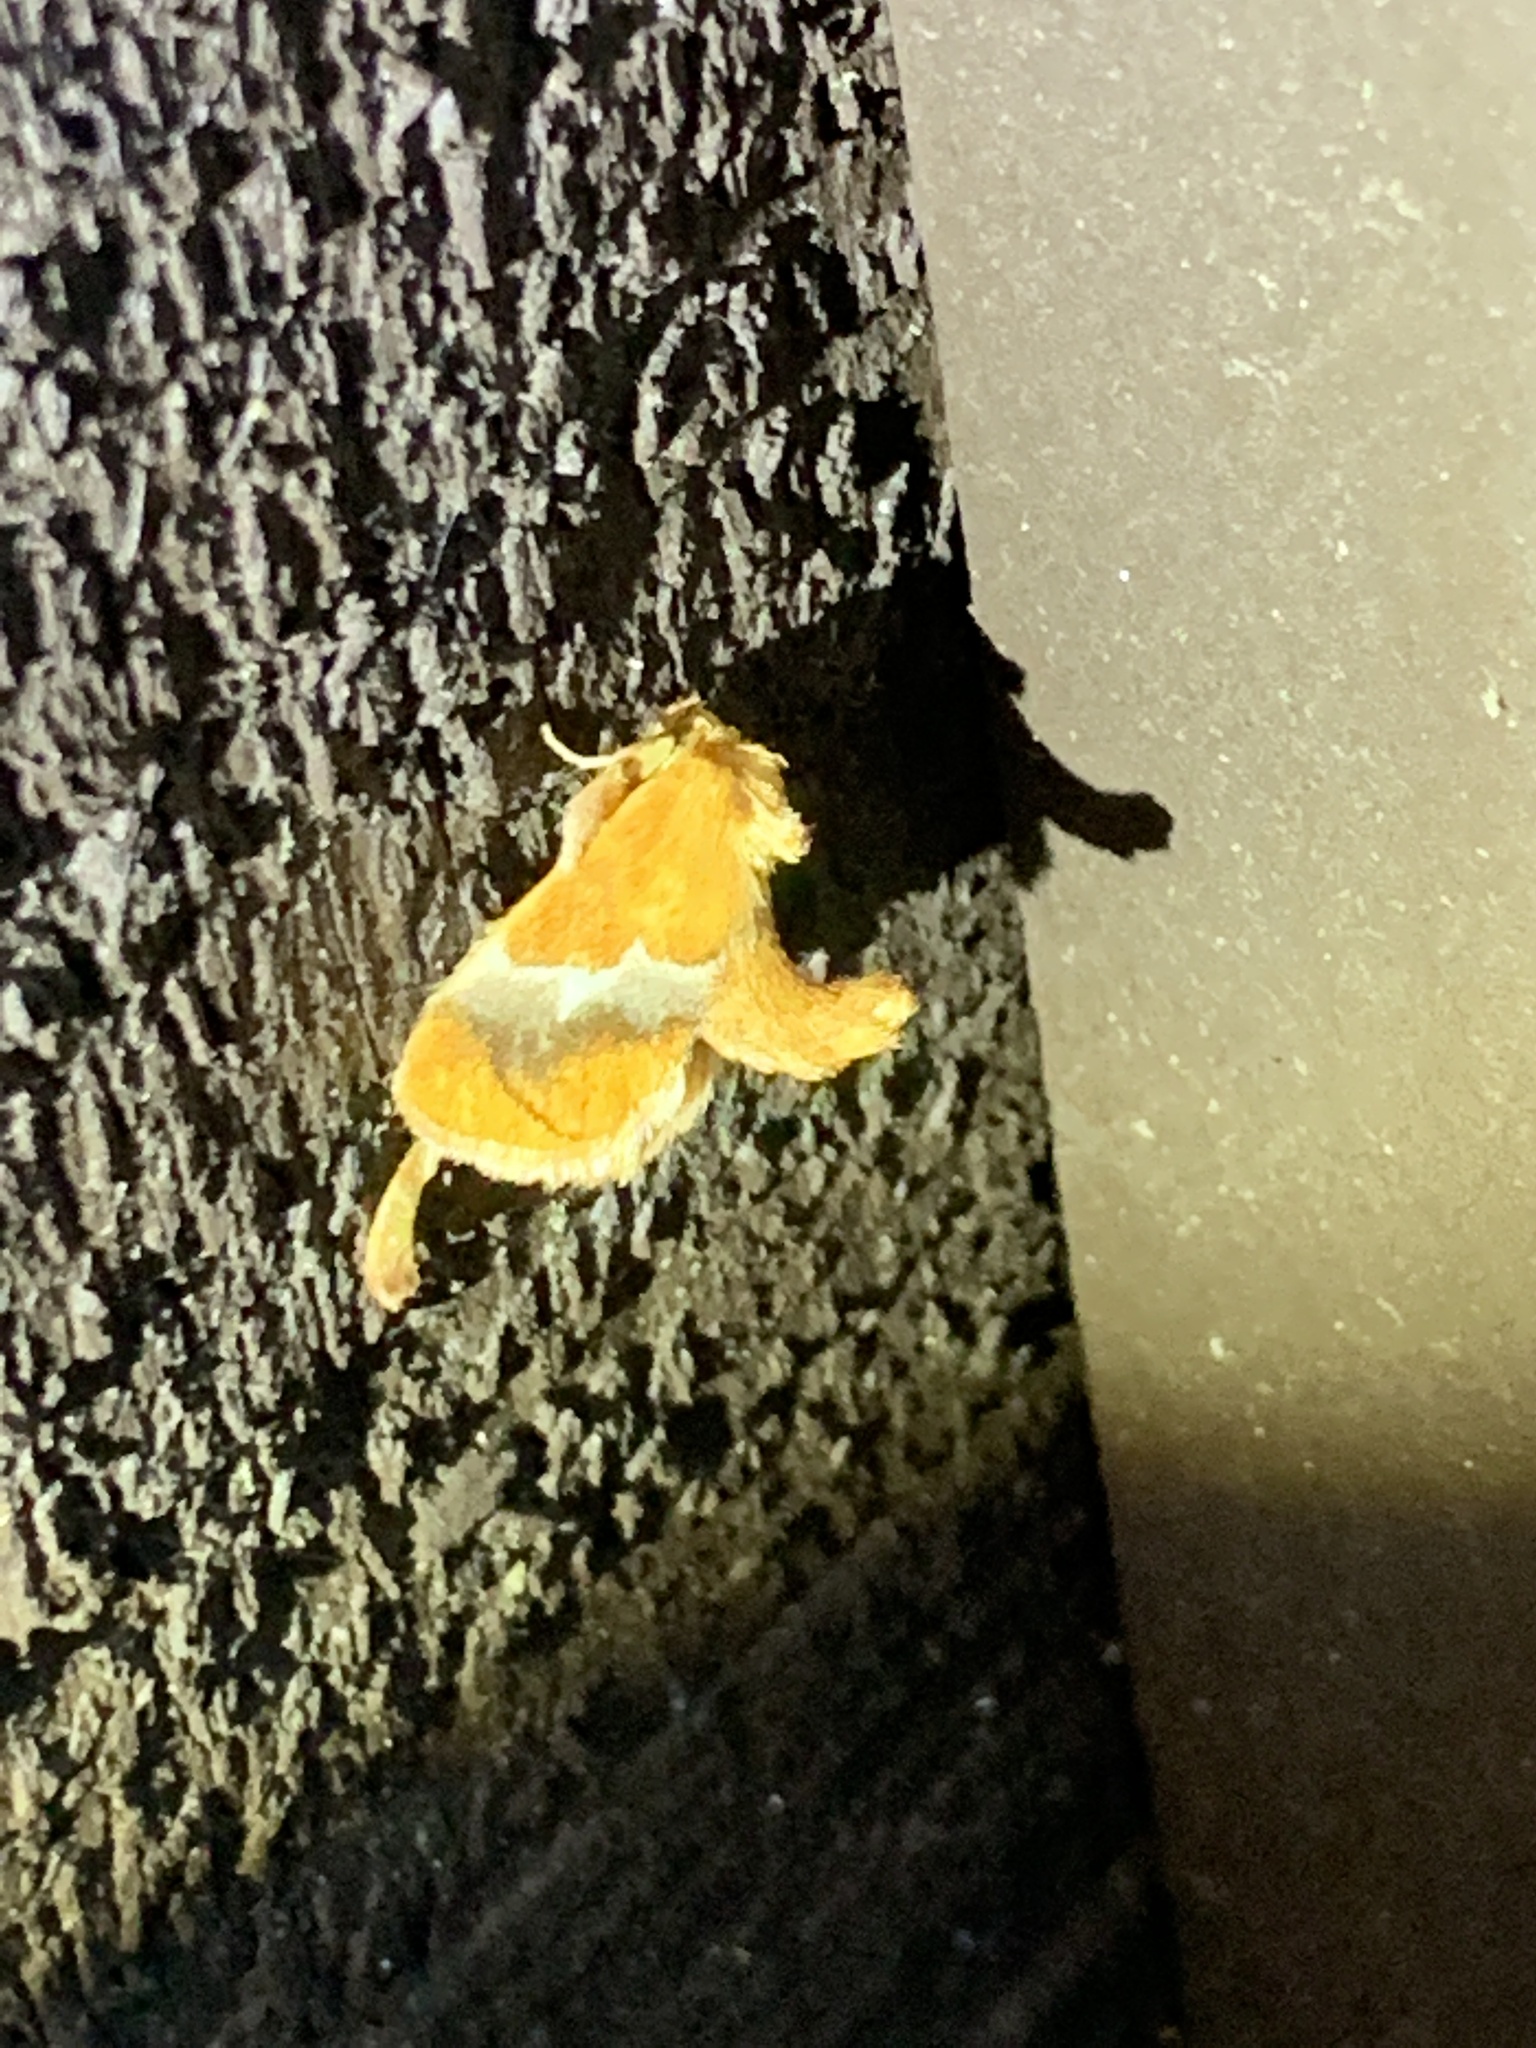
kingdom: Animalia
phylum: Arthropoda
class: Insecta
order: Lepidoptera
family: Limacodidae
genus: Lithacodes
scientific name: Lithacodes fasciola
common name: Yellow-shouldered slug moth
